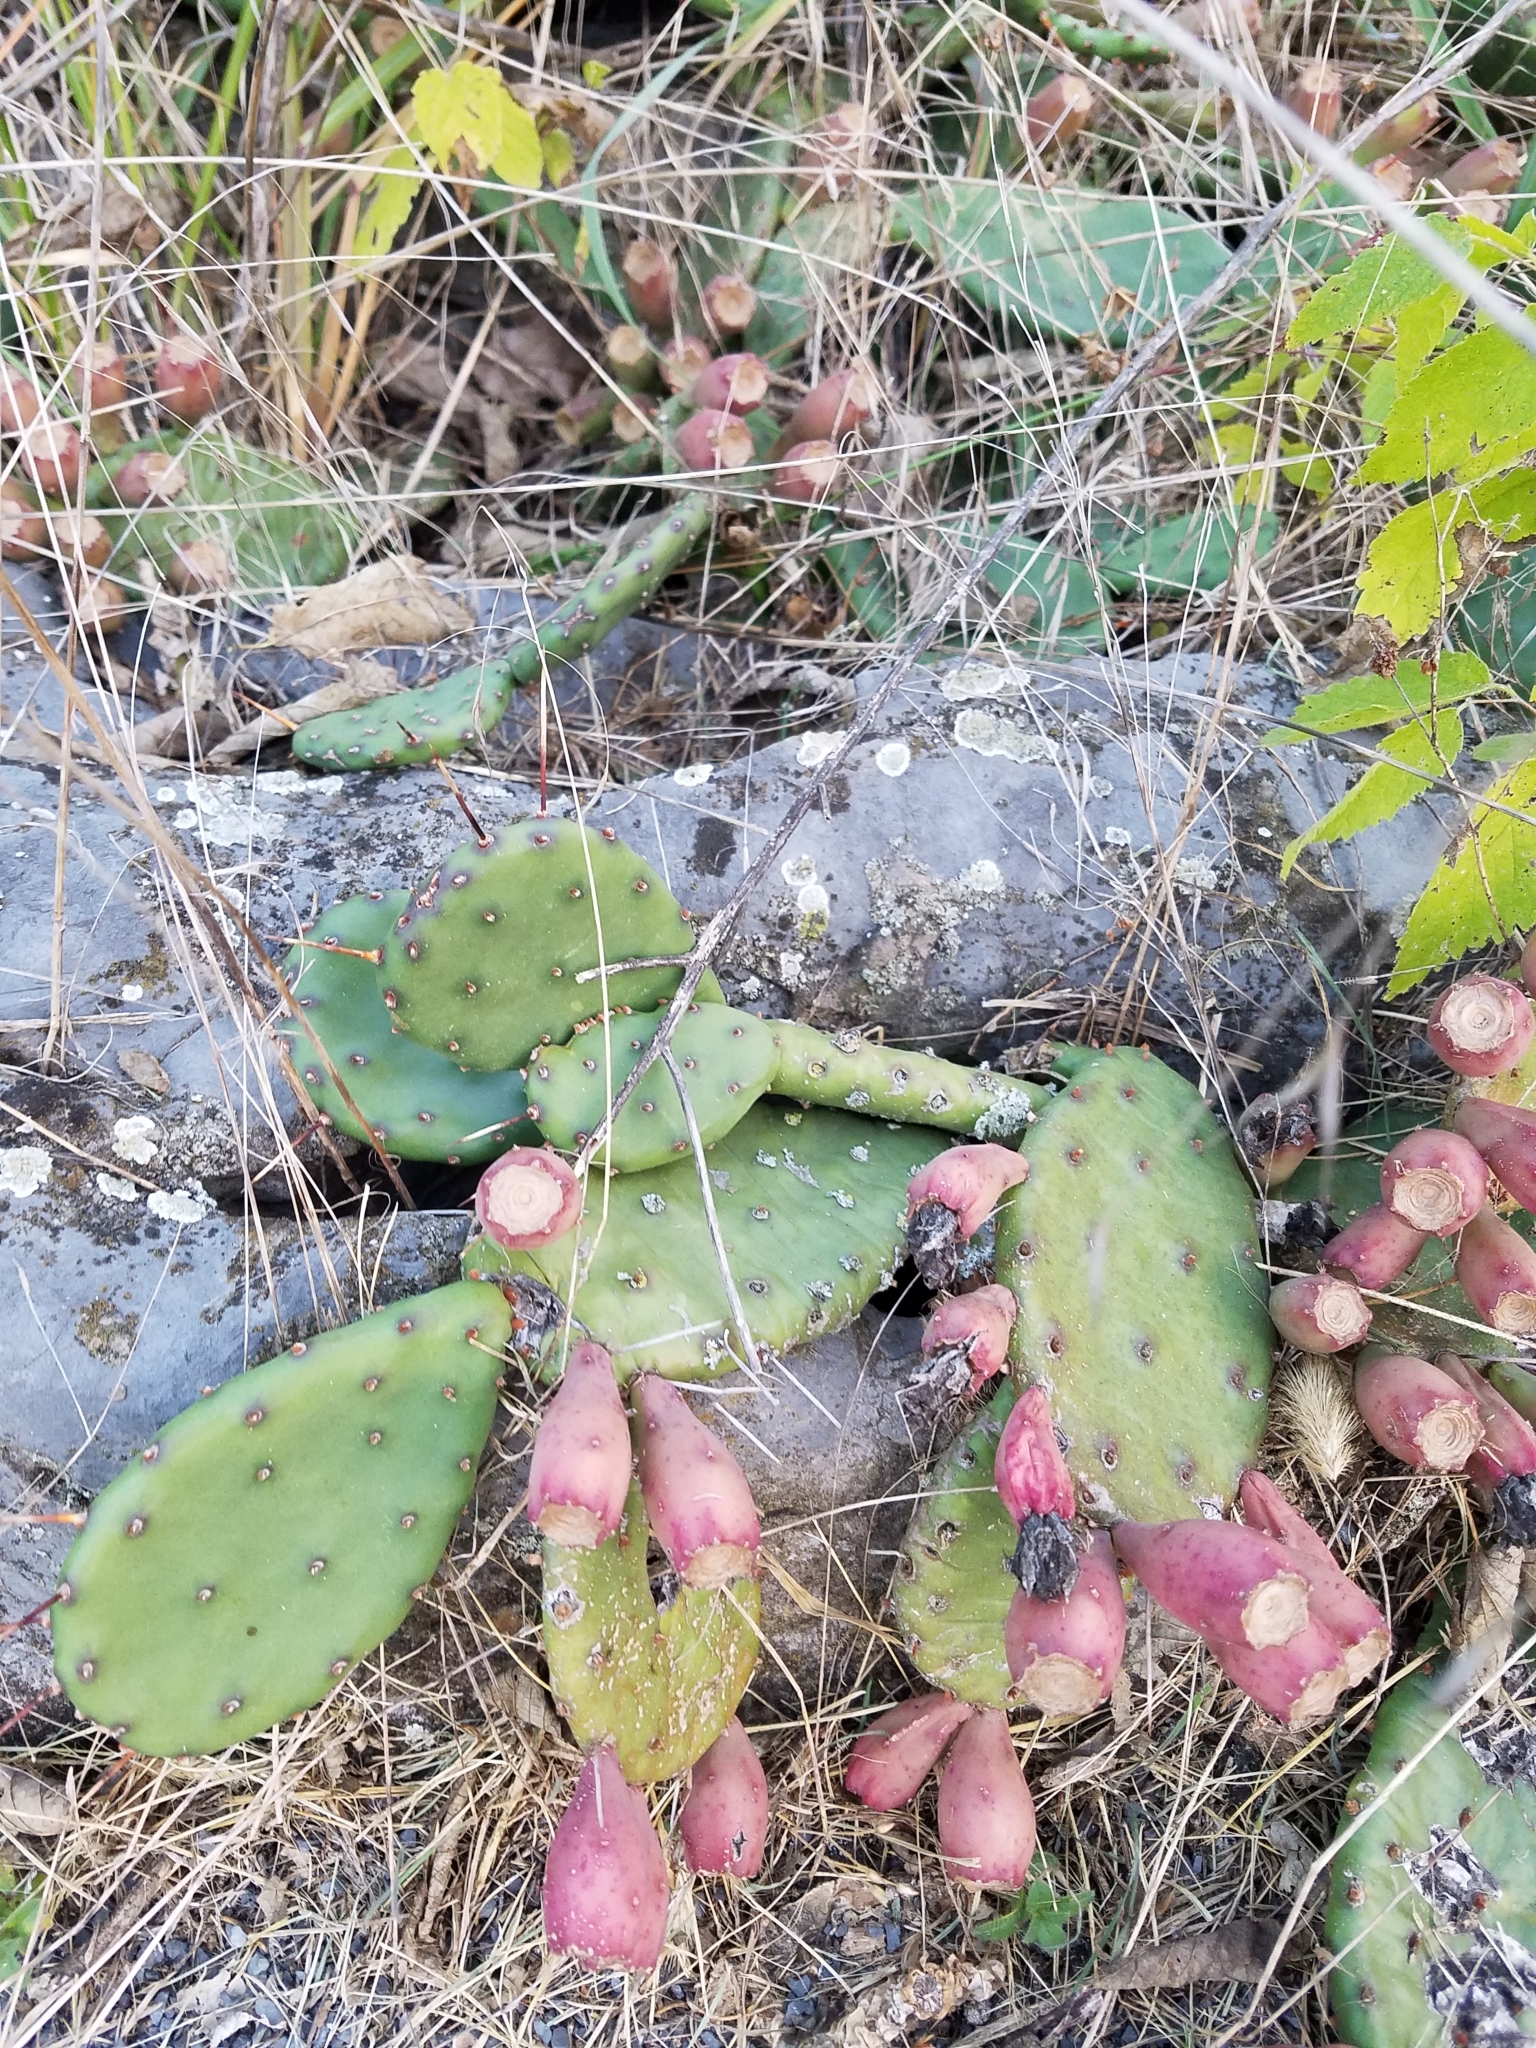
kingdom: Plantae
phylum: Tracheophyta
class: Magnoliopsida
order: Caryophyllales
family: Cactaceae
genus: Opuntia
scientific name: Opuntia humifusa
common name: Eastern prickly-pear
